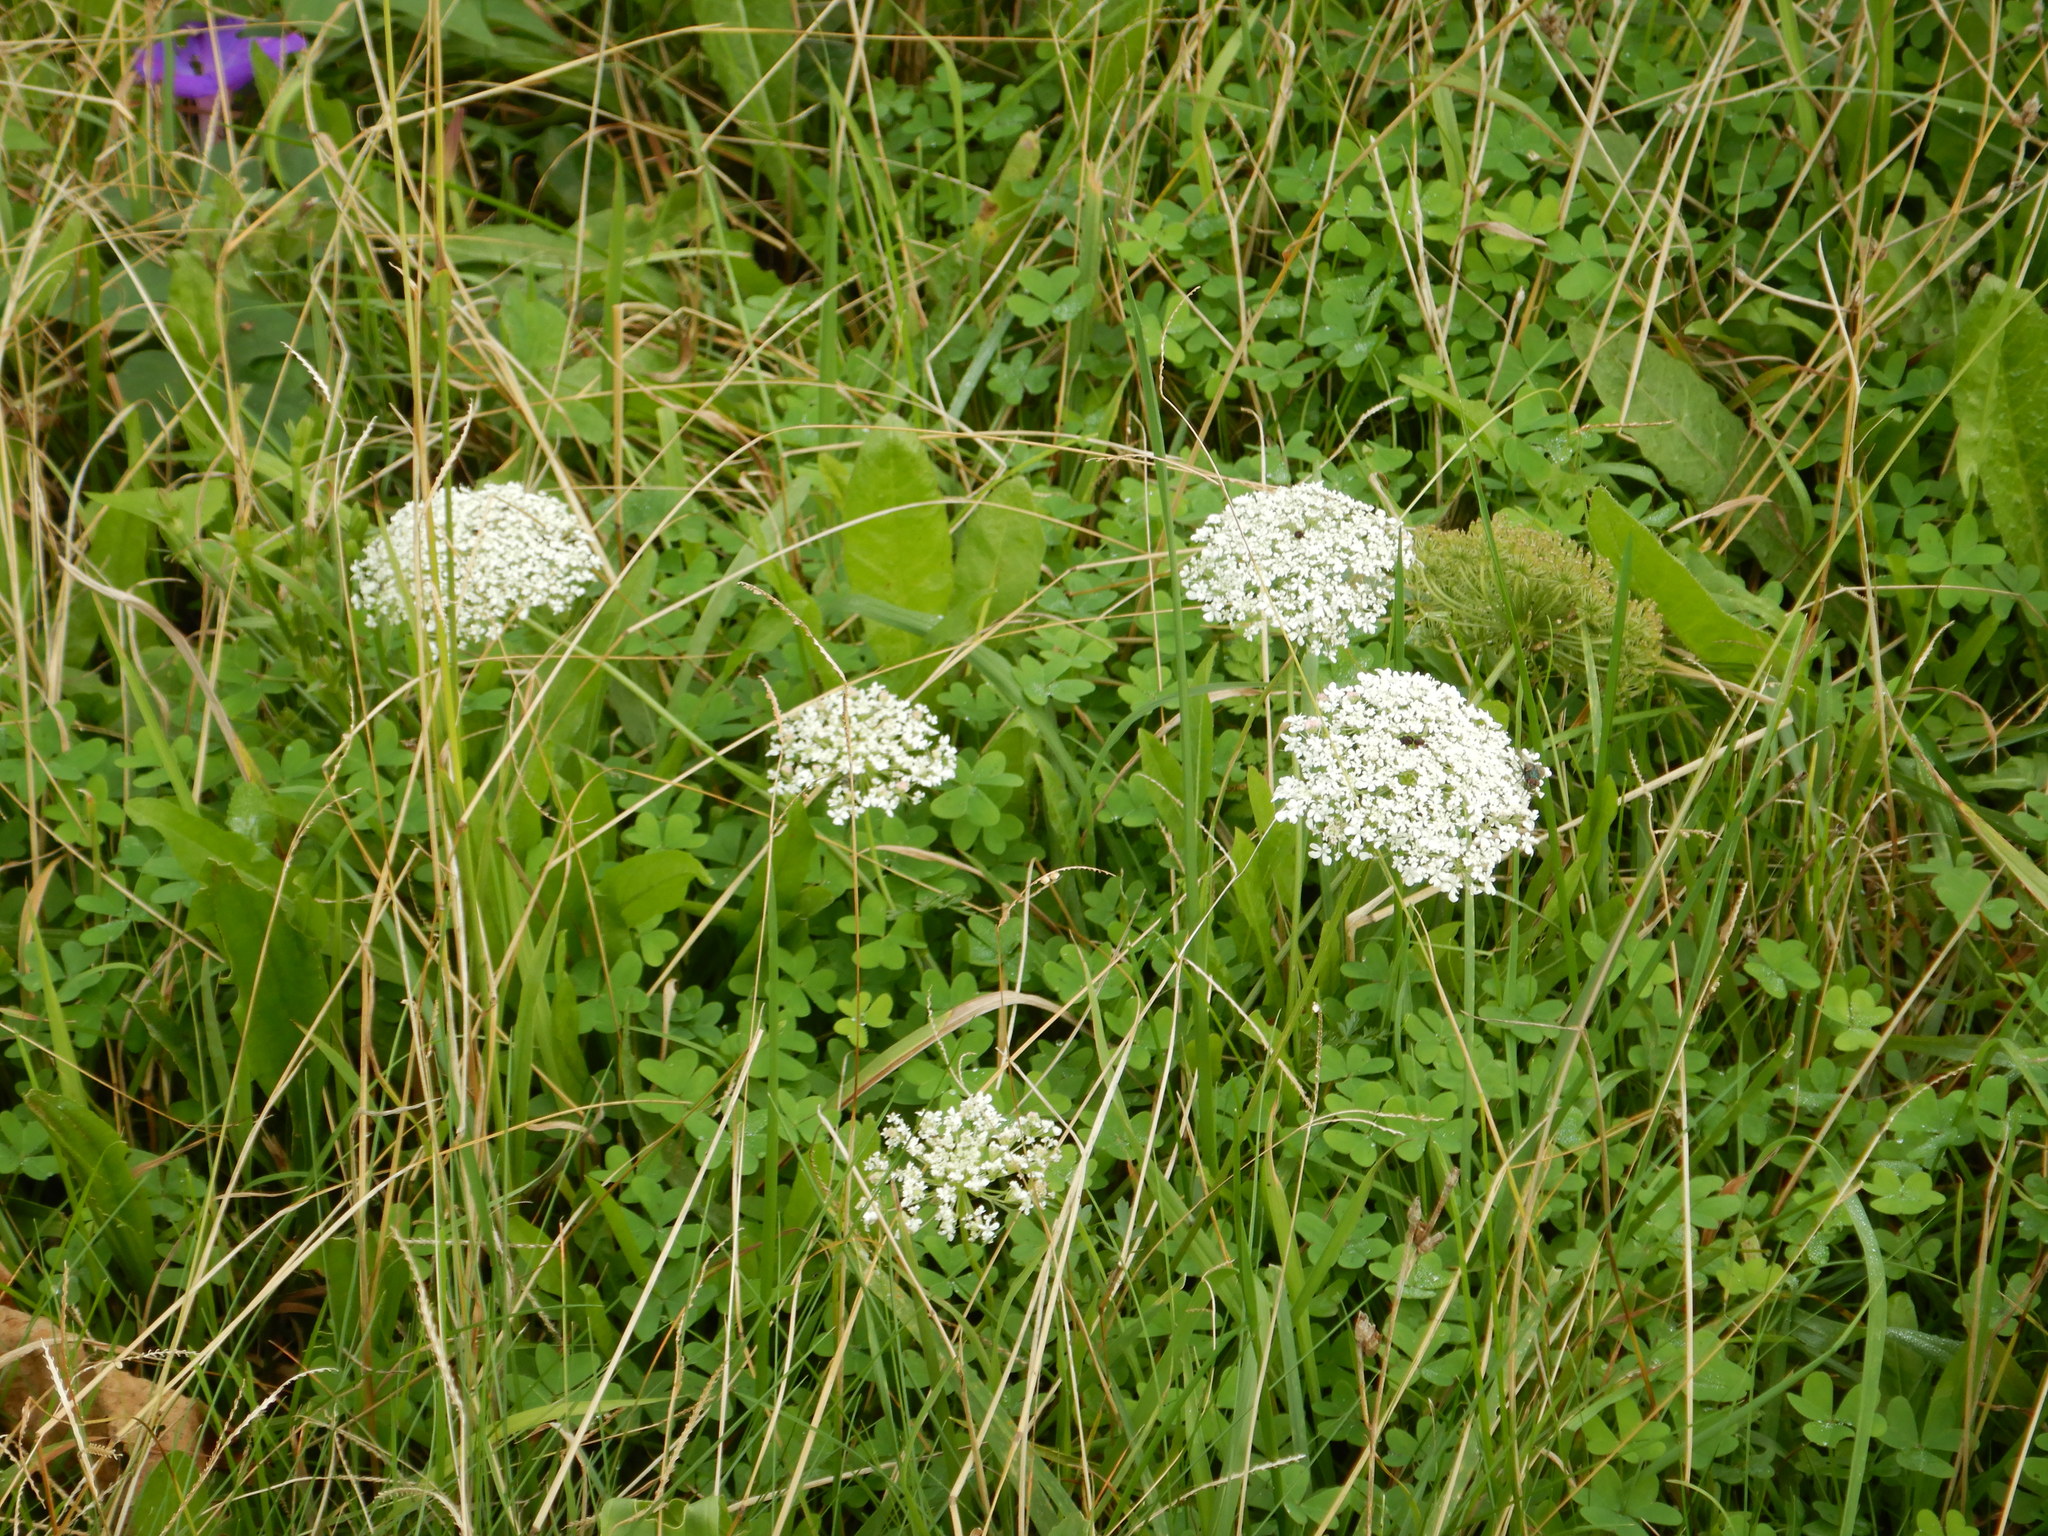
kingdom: Plantae
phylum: Tracheophyta
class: Magnoliopsida
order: Apiales
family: Apiaceae
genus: Daucus
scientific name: Daucus carota
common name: Wild carrot
